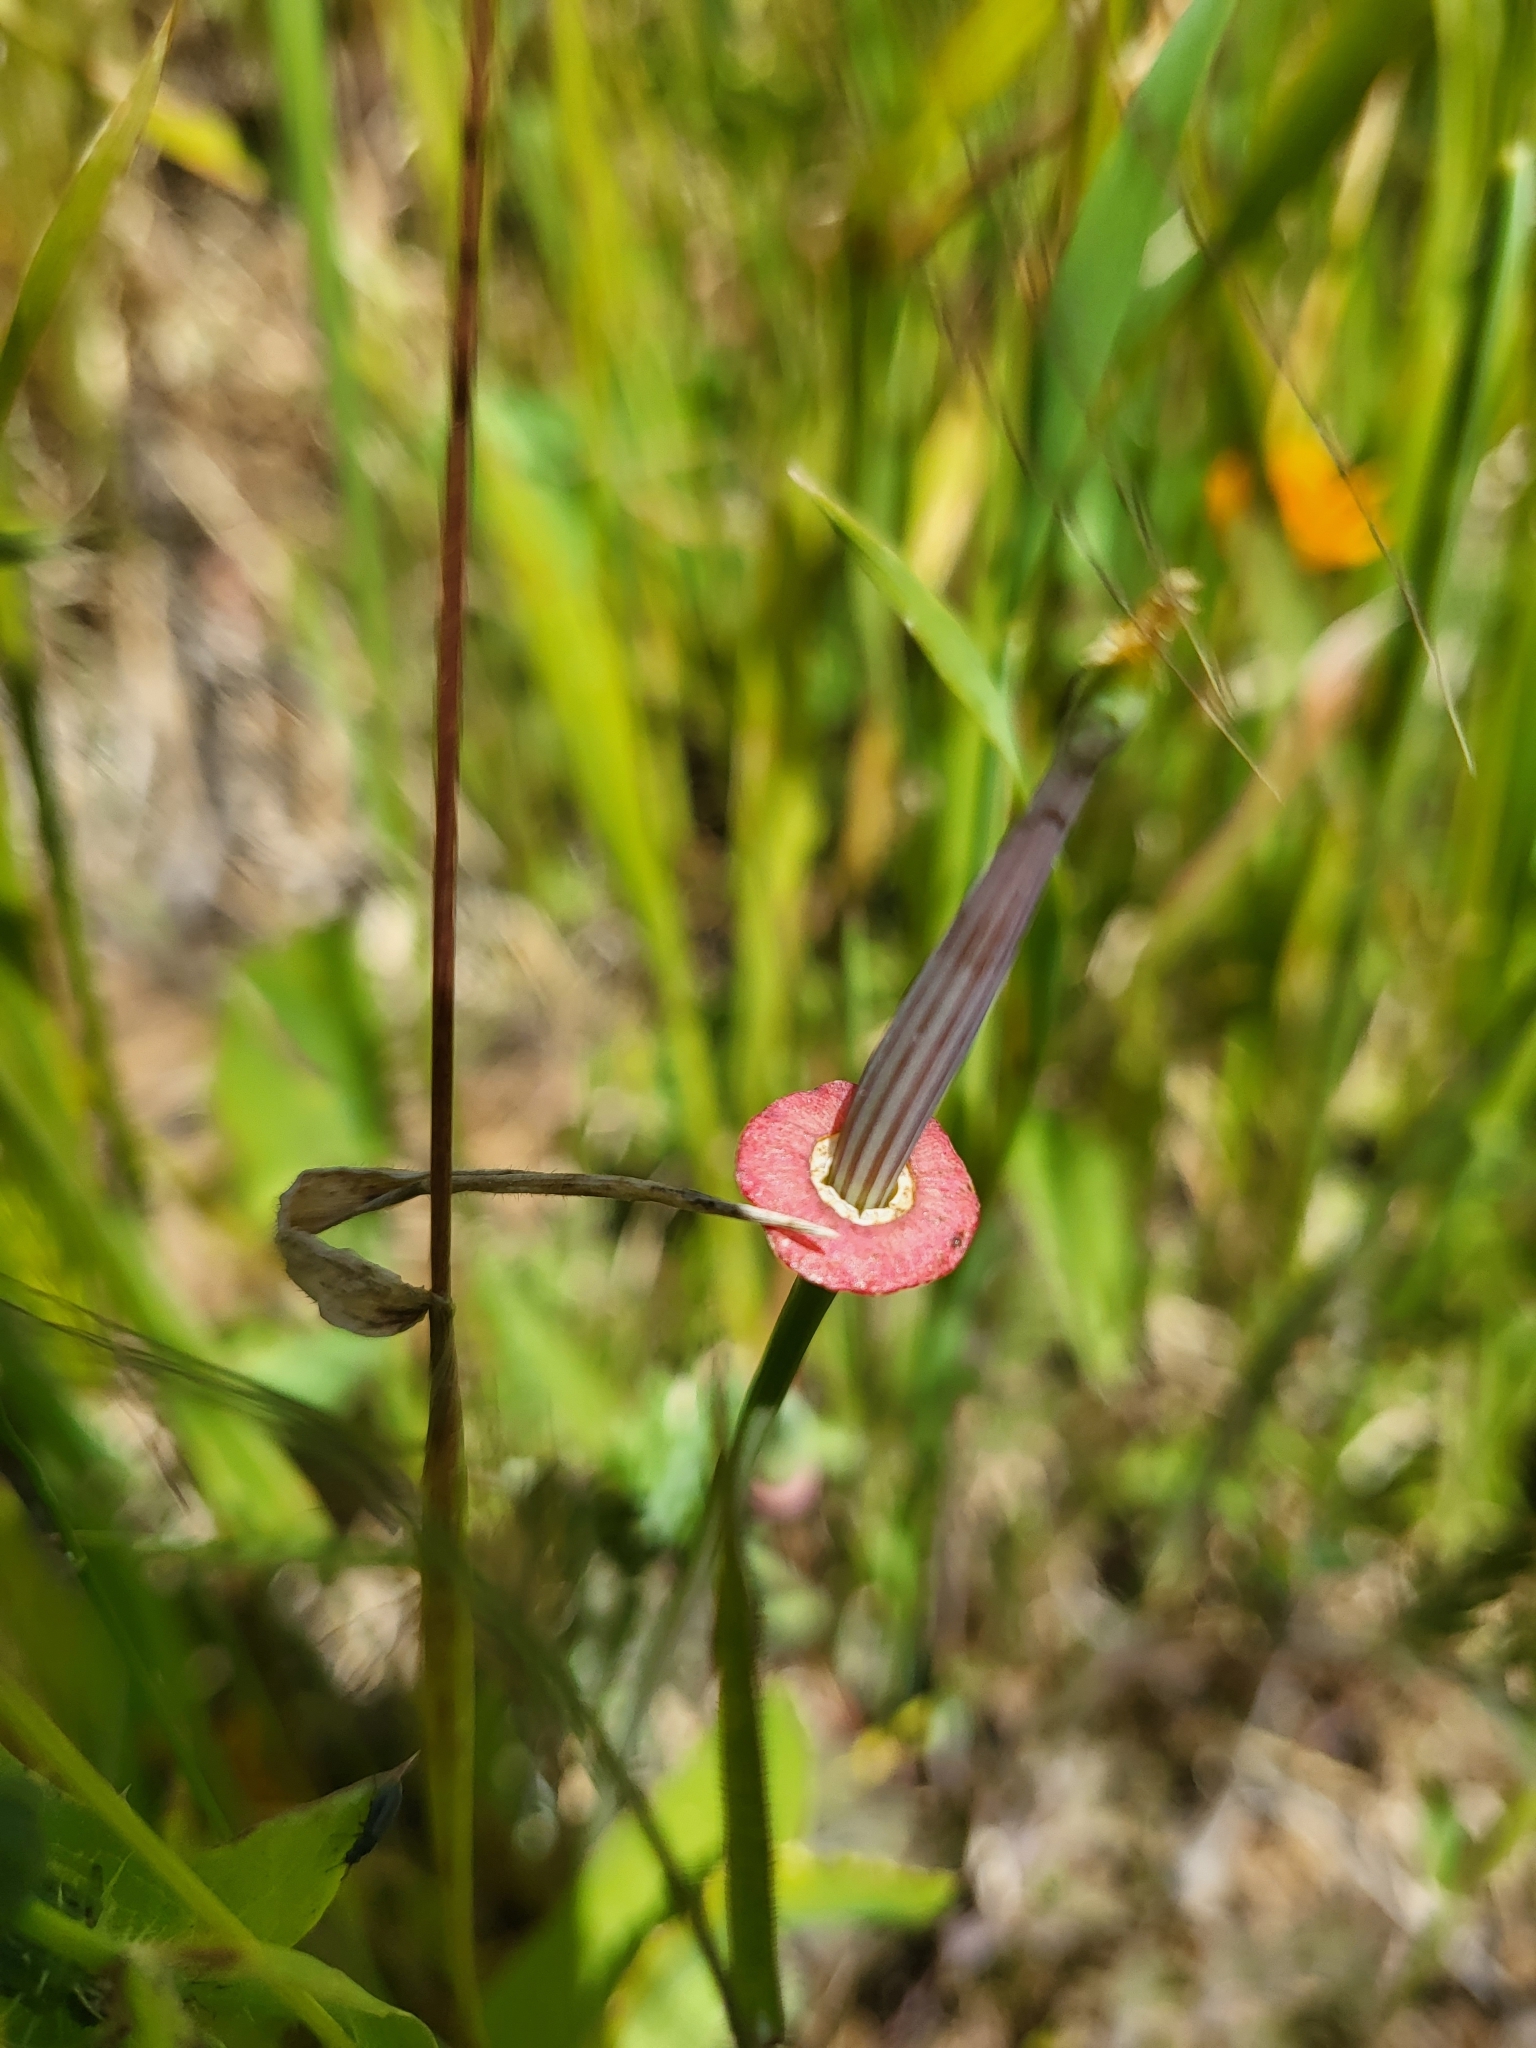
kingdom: Plantae
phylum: Tracheophyta
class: Magnoliopsida
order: Ranunculales
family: Papaveraceae
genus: Eschscholzia
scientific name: Eschscholzia californica
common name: California poppy
